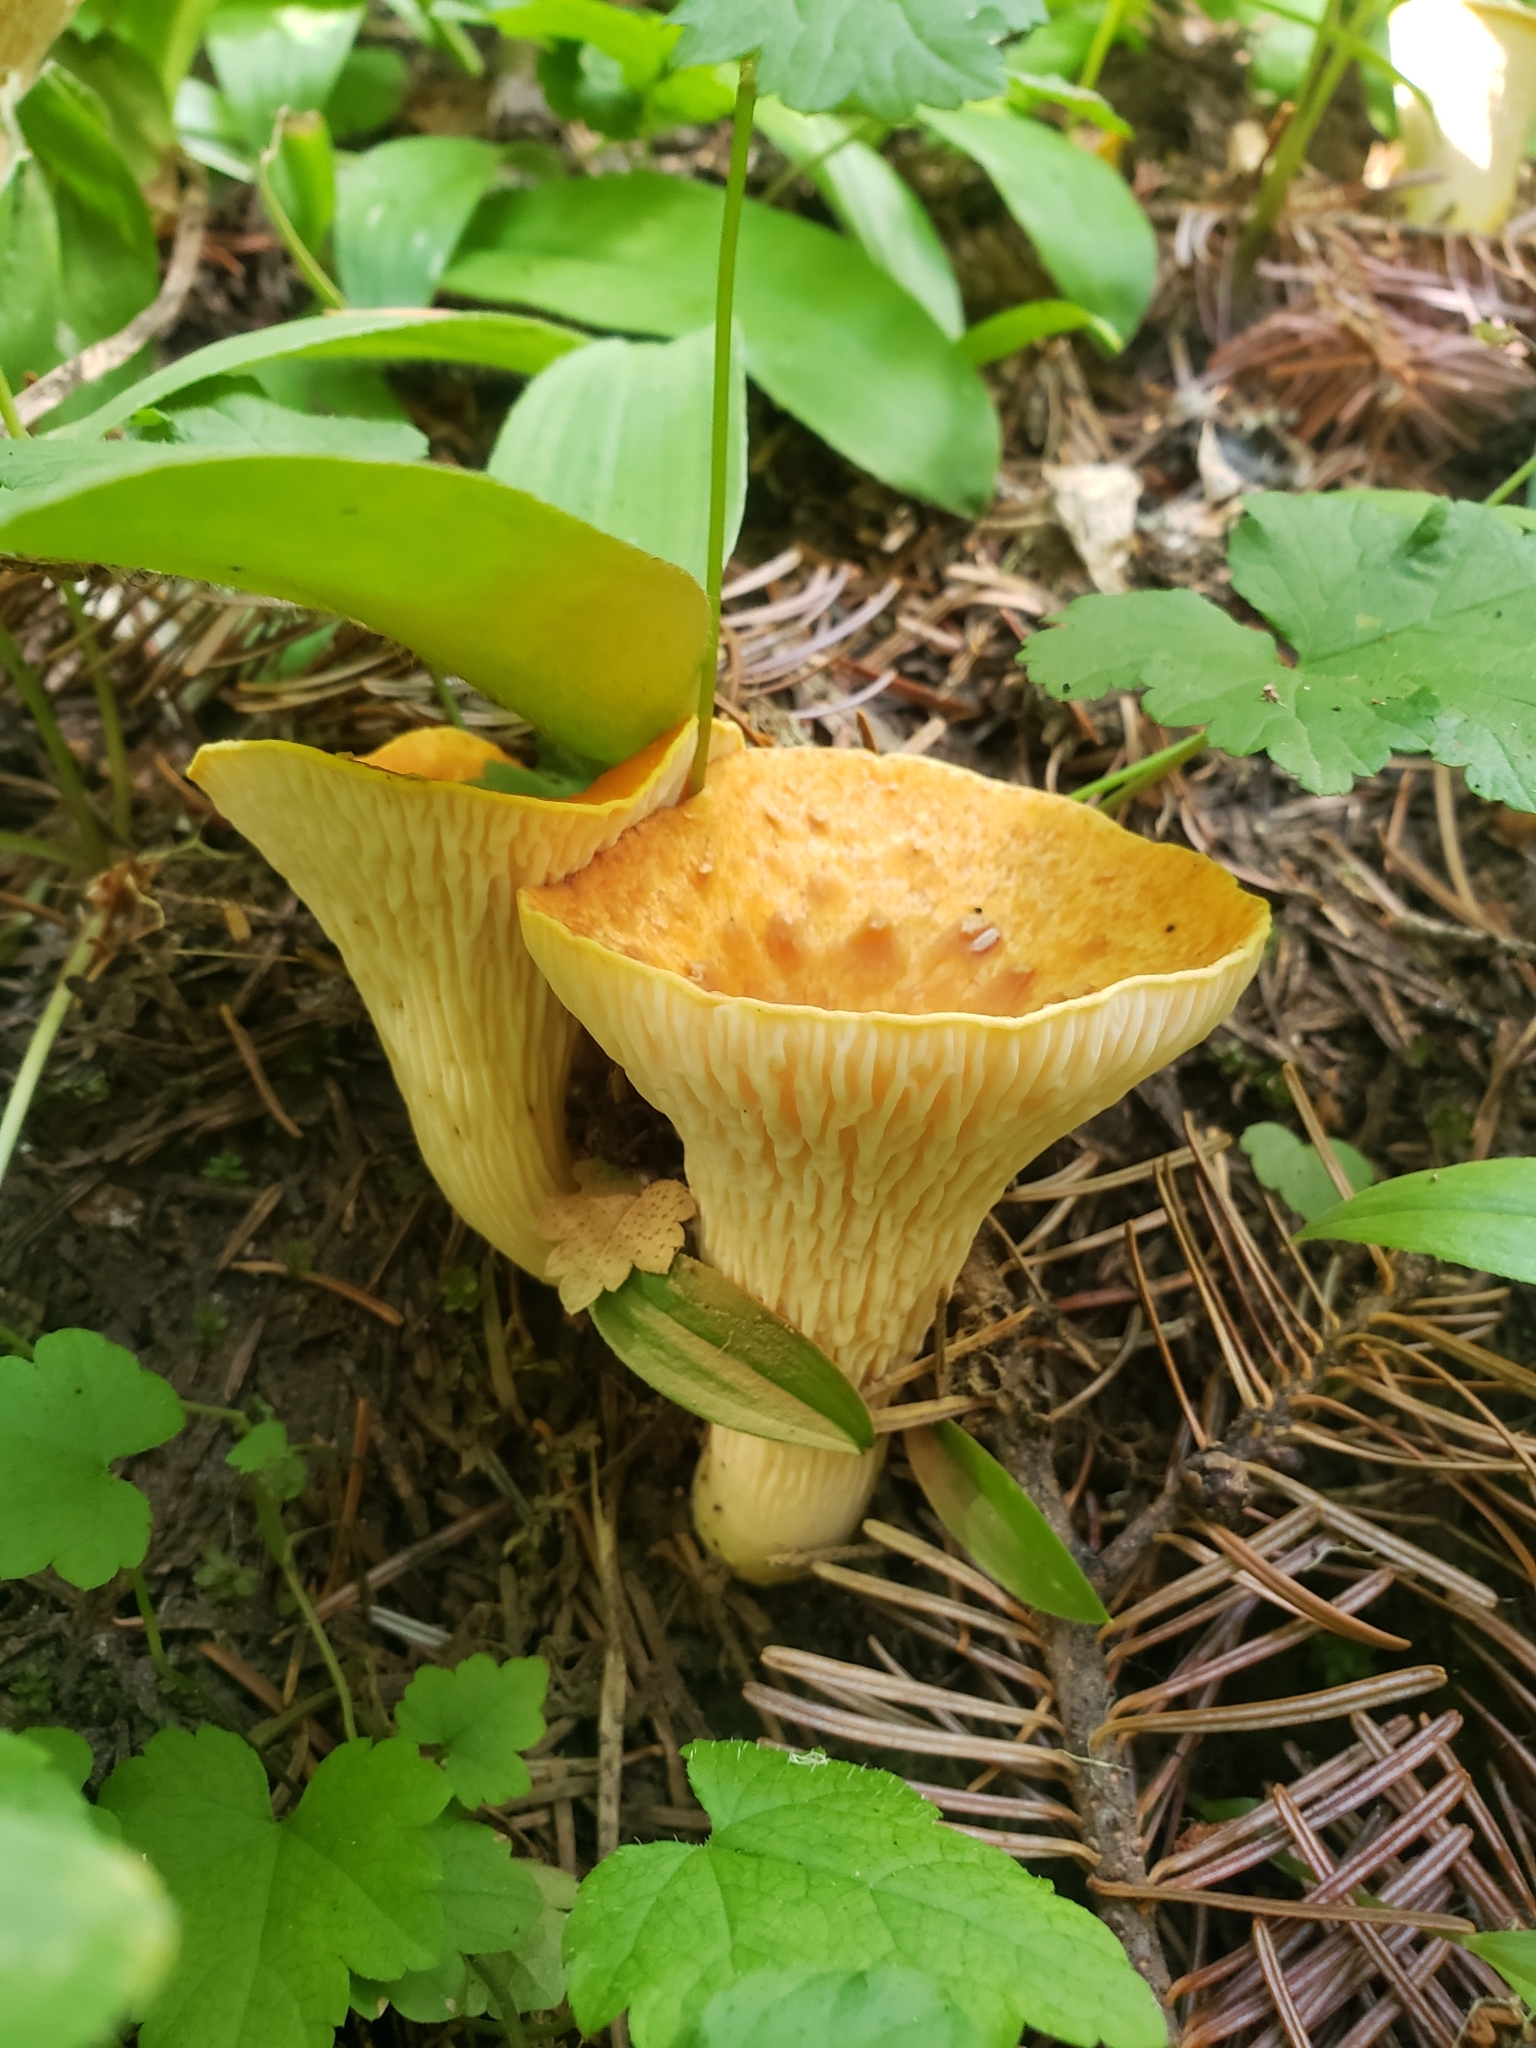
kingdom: Fungi
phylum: Basidiomycota
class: Agaricomycetes
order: Gomphales
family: Gomphaceae
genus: Turbinellus
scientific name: Turbinellus floccosus
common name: Scaly chanterelle
